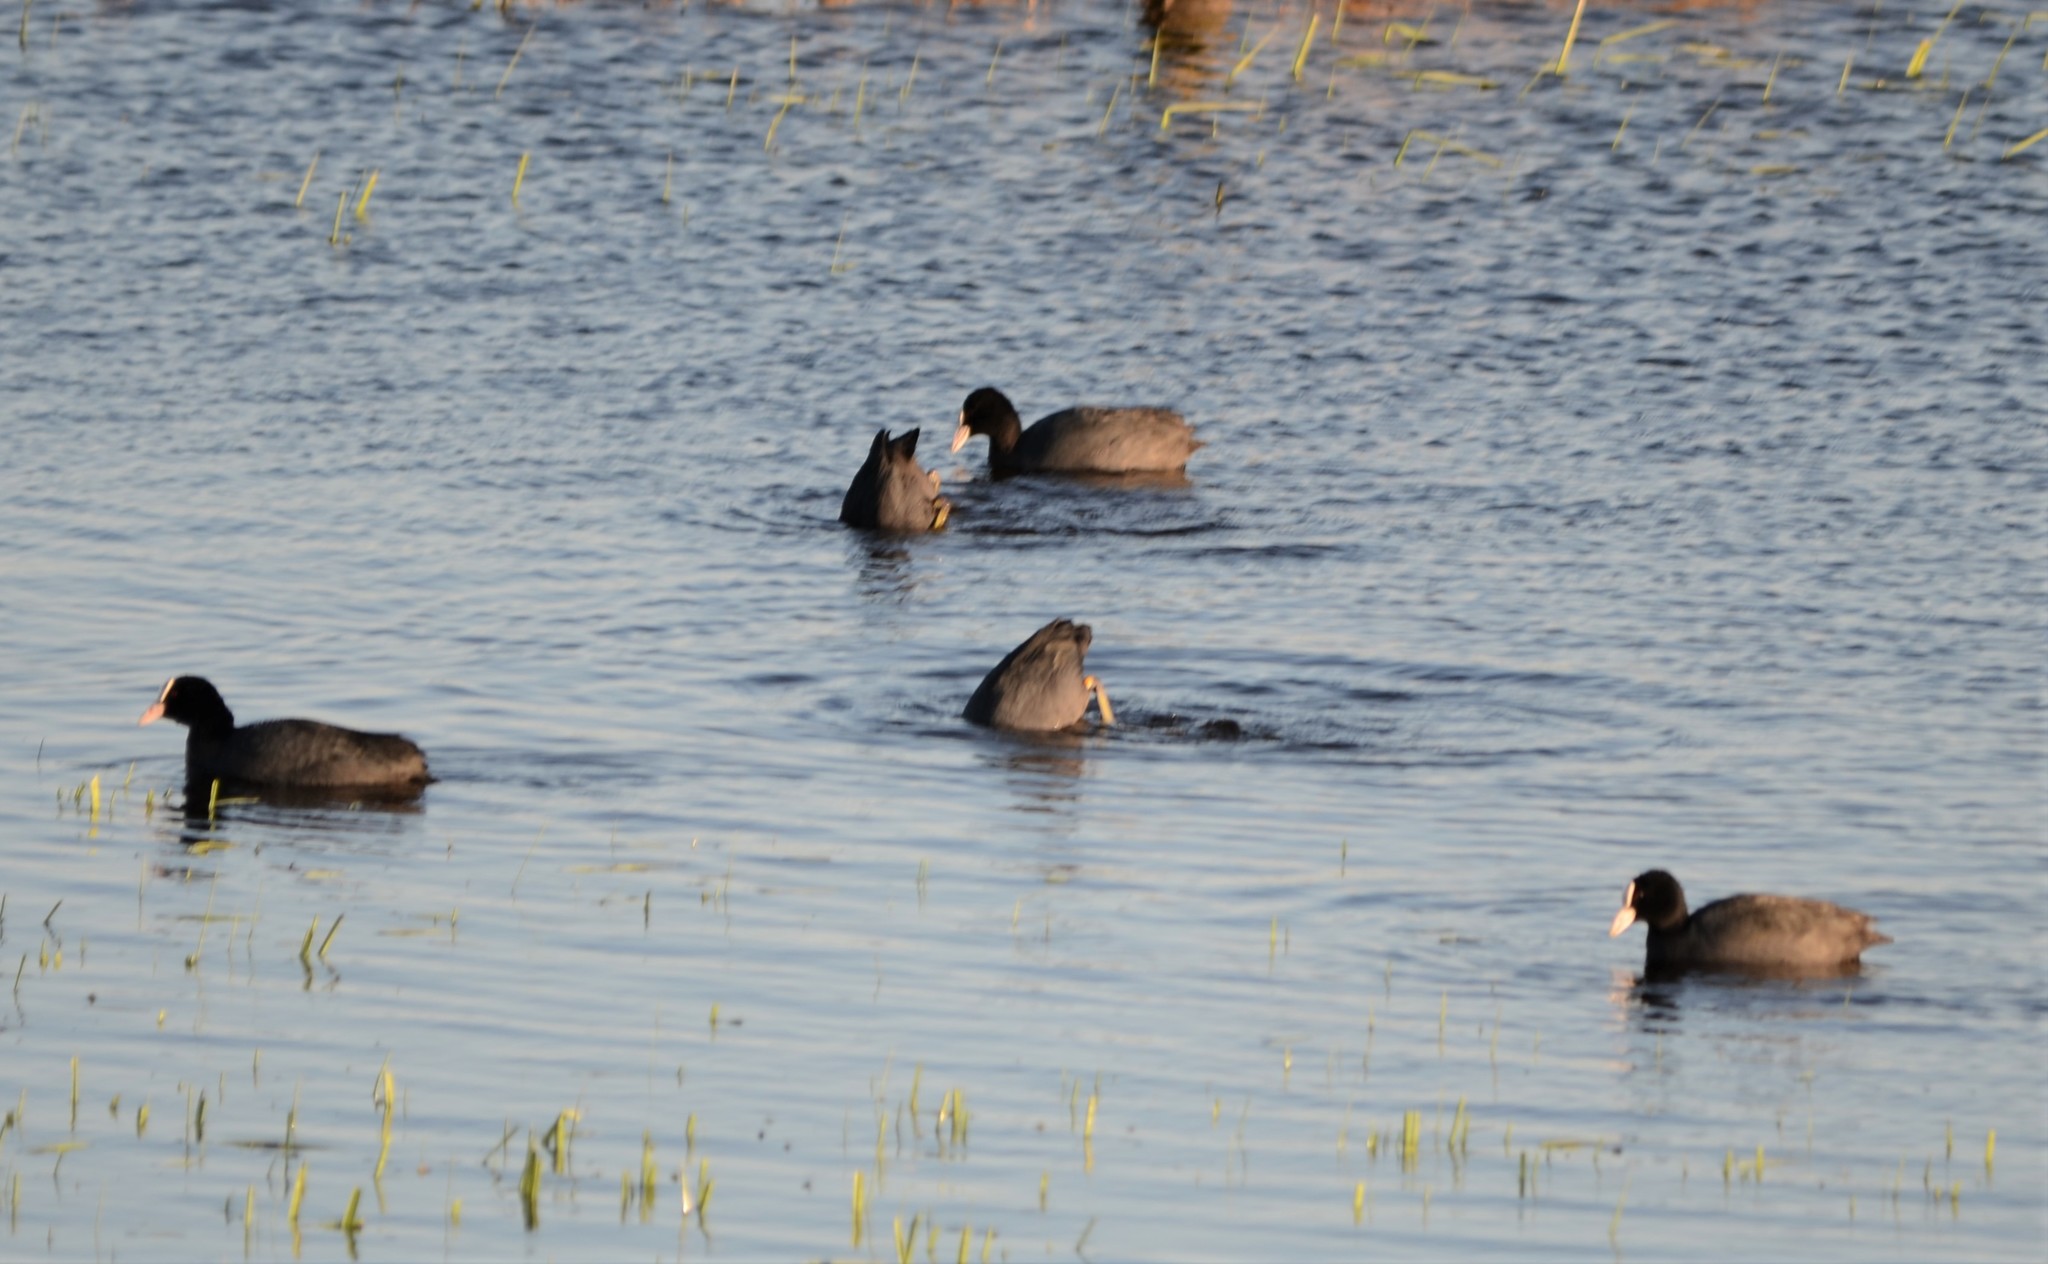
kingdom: Animalia
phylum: Chordata
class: Aves
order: Gruiformes
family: Rallidae
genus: Fulica
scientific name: Fulica atra
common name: Eurasian coot
